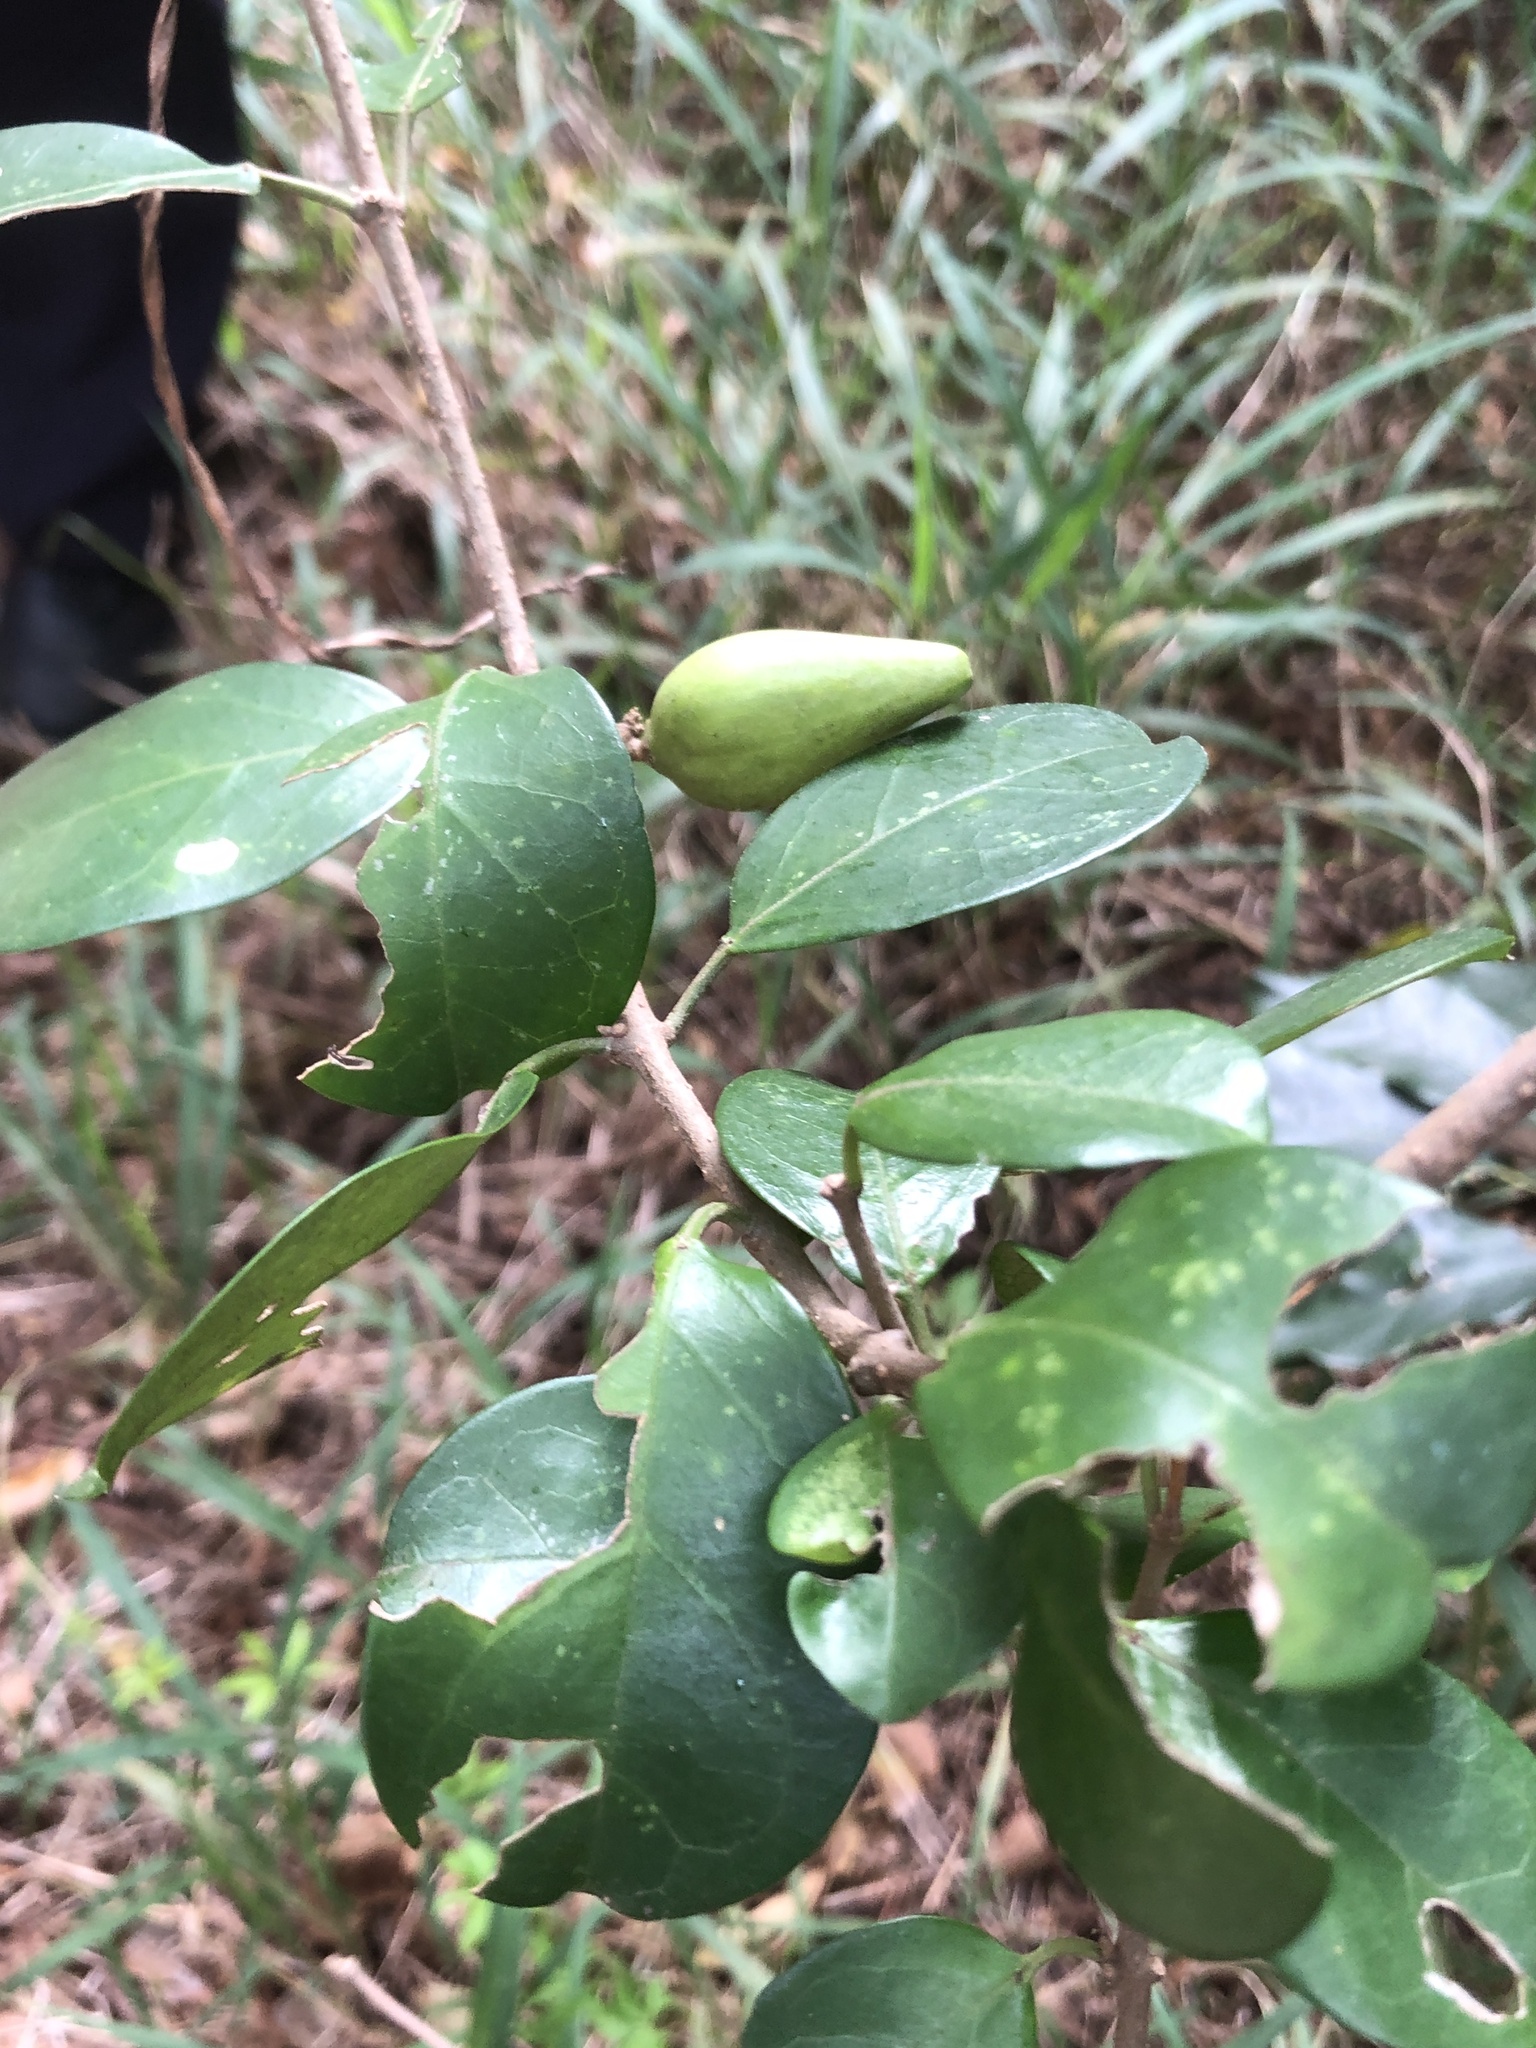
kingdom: Plantae
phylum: Tracheophyta
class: Magnoliopsida
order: Gentianales
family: Apocynaceae
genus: Gymnema
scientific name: Gymnema sylvestre
